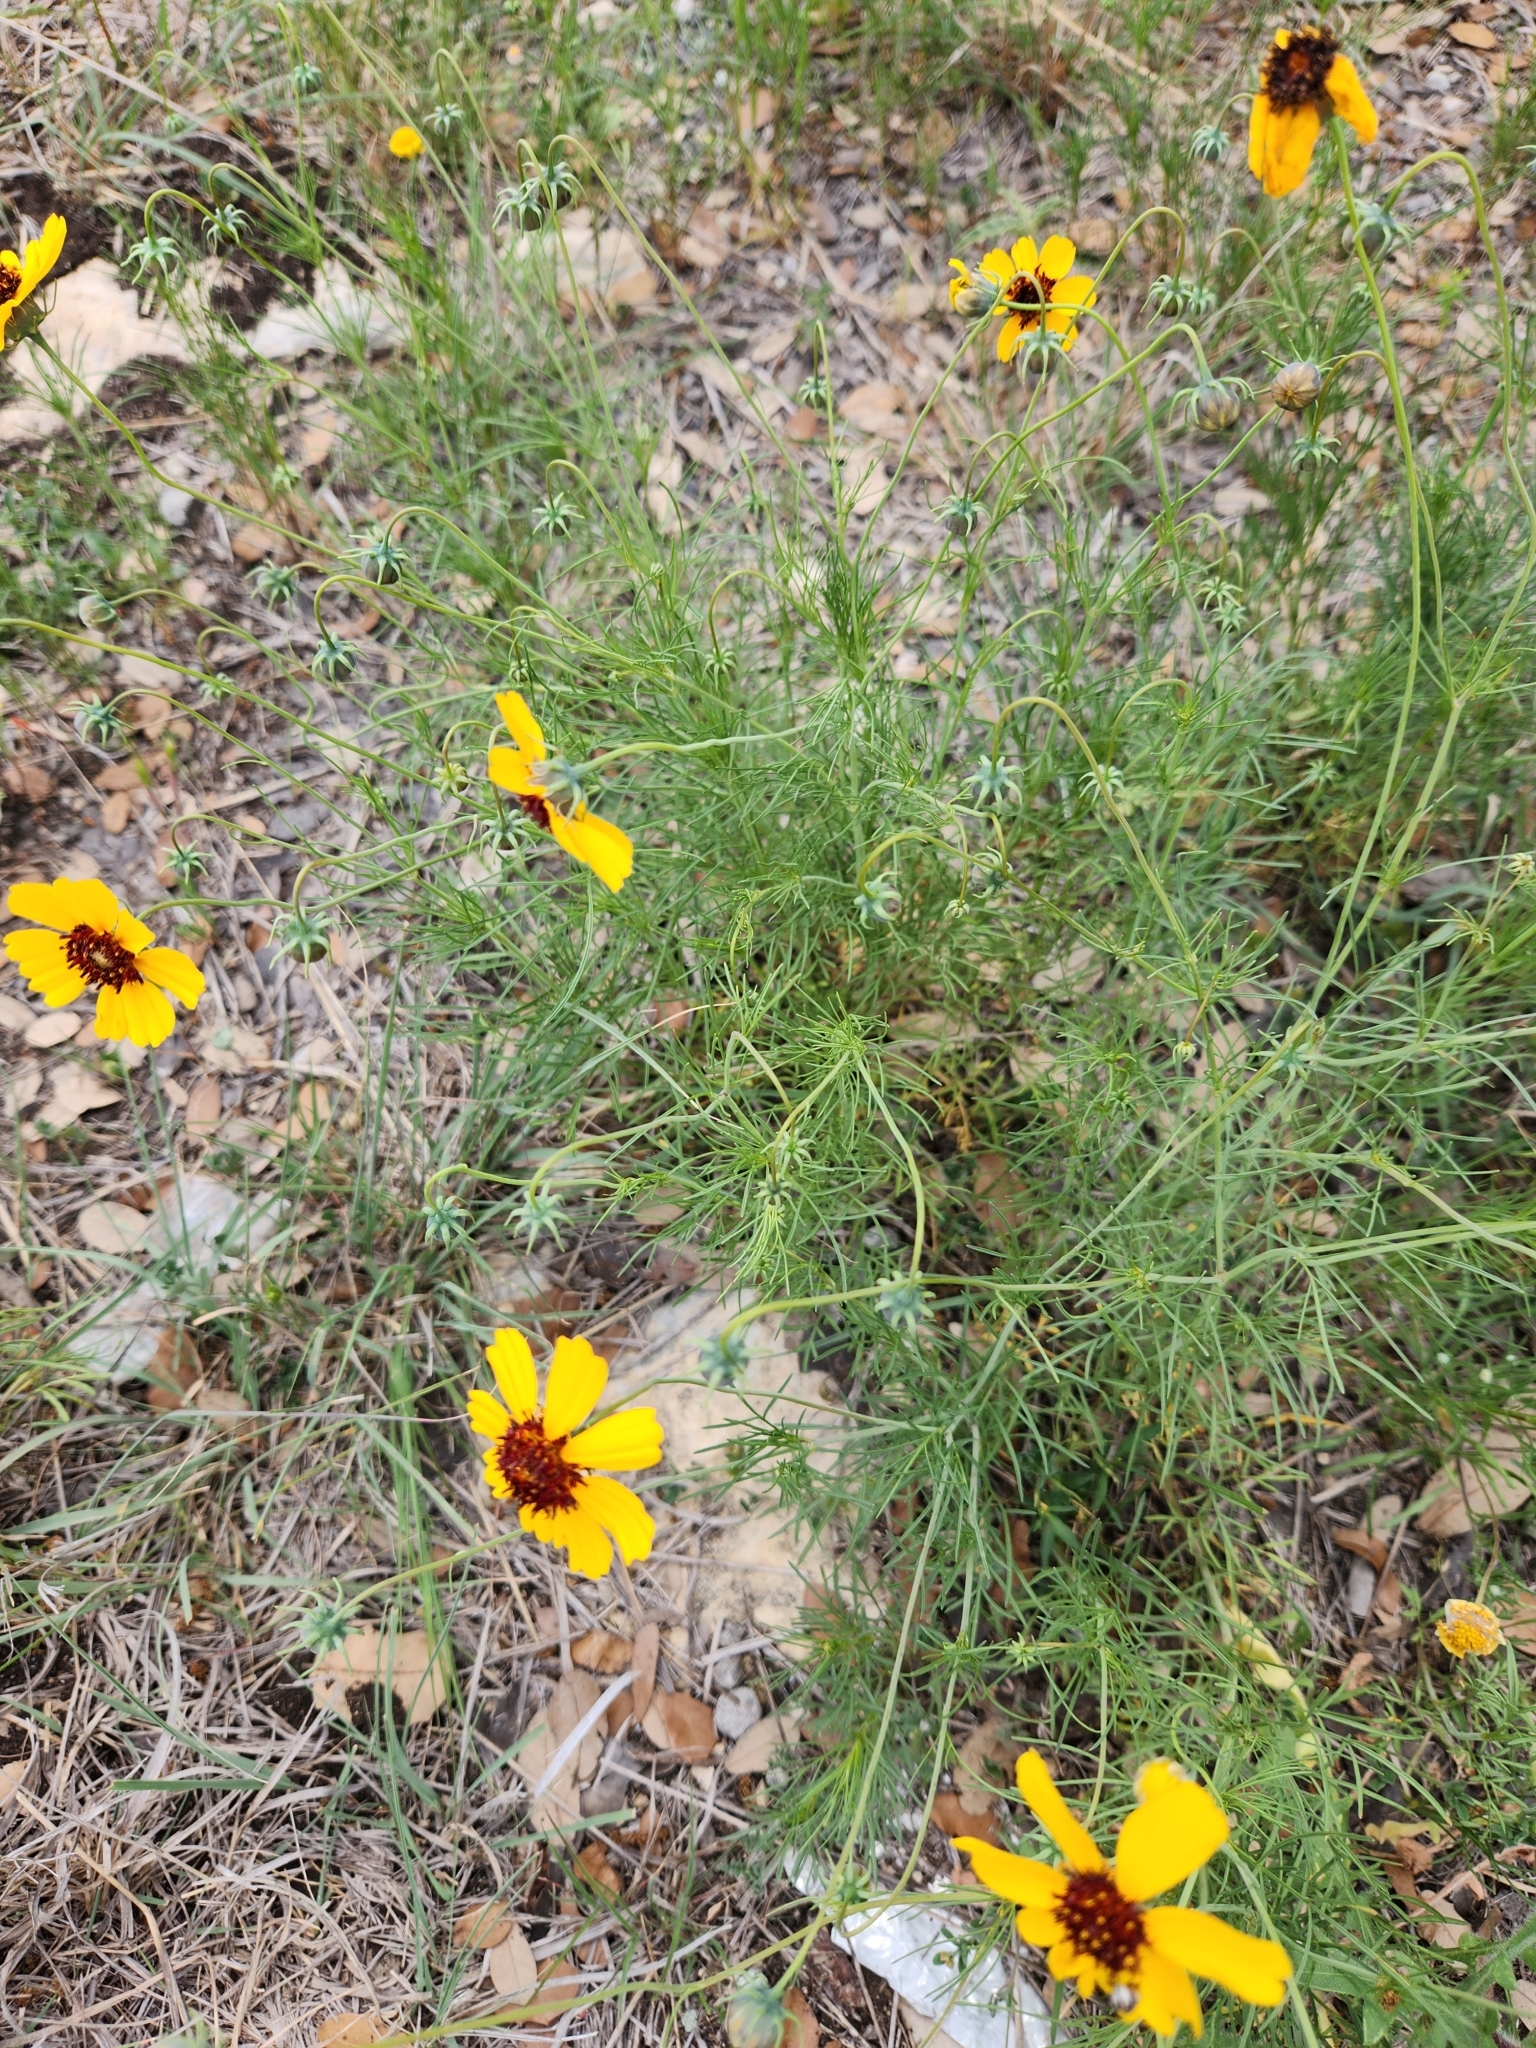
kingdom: Plantae
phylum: Tracheophyta
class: Magnoliopsida
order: Asterales
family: Asteraceae
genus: Thelesperma
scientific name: Thelesperma filifolium
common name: Stiff greenthread
